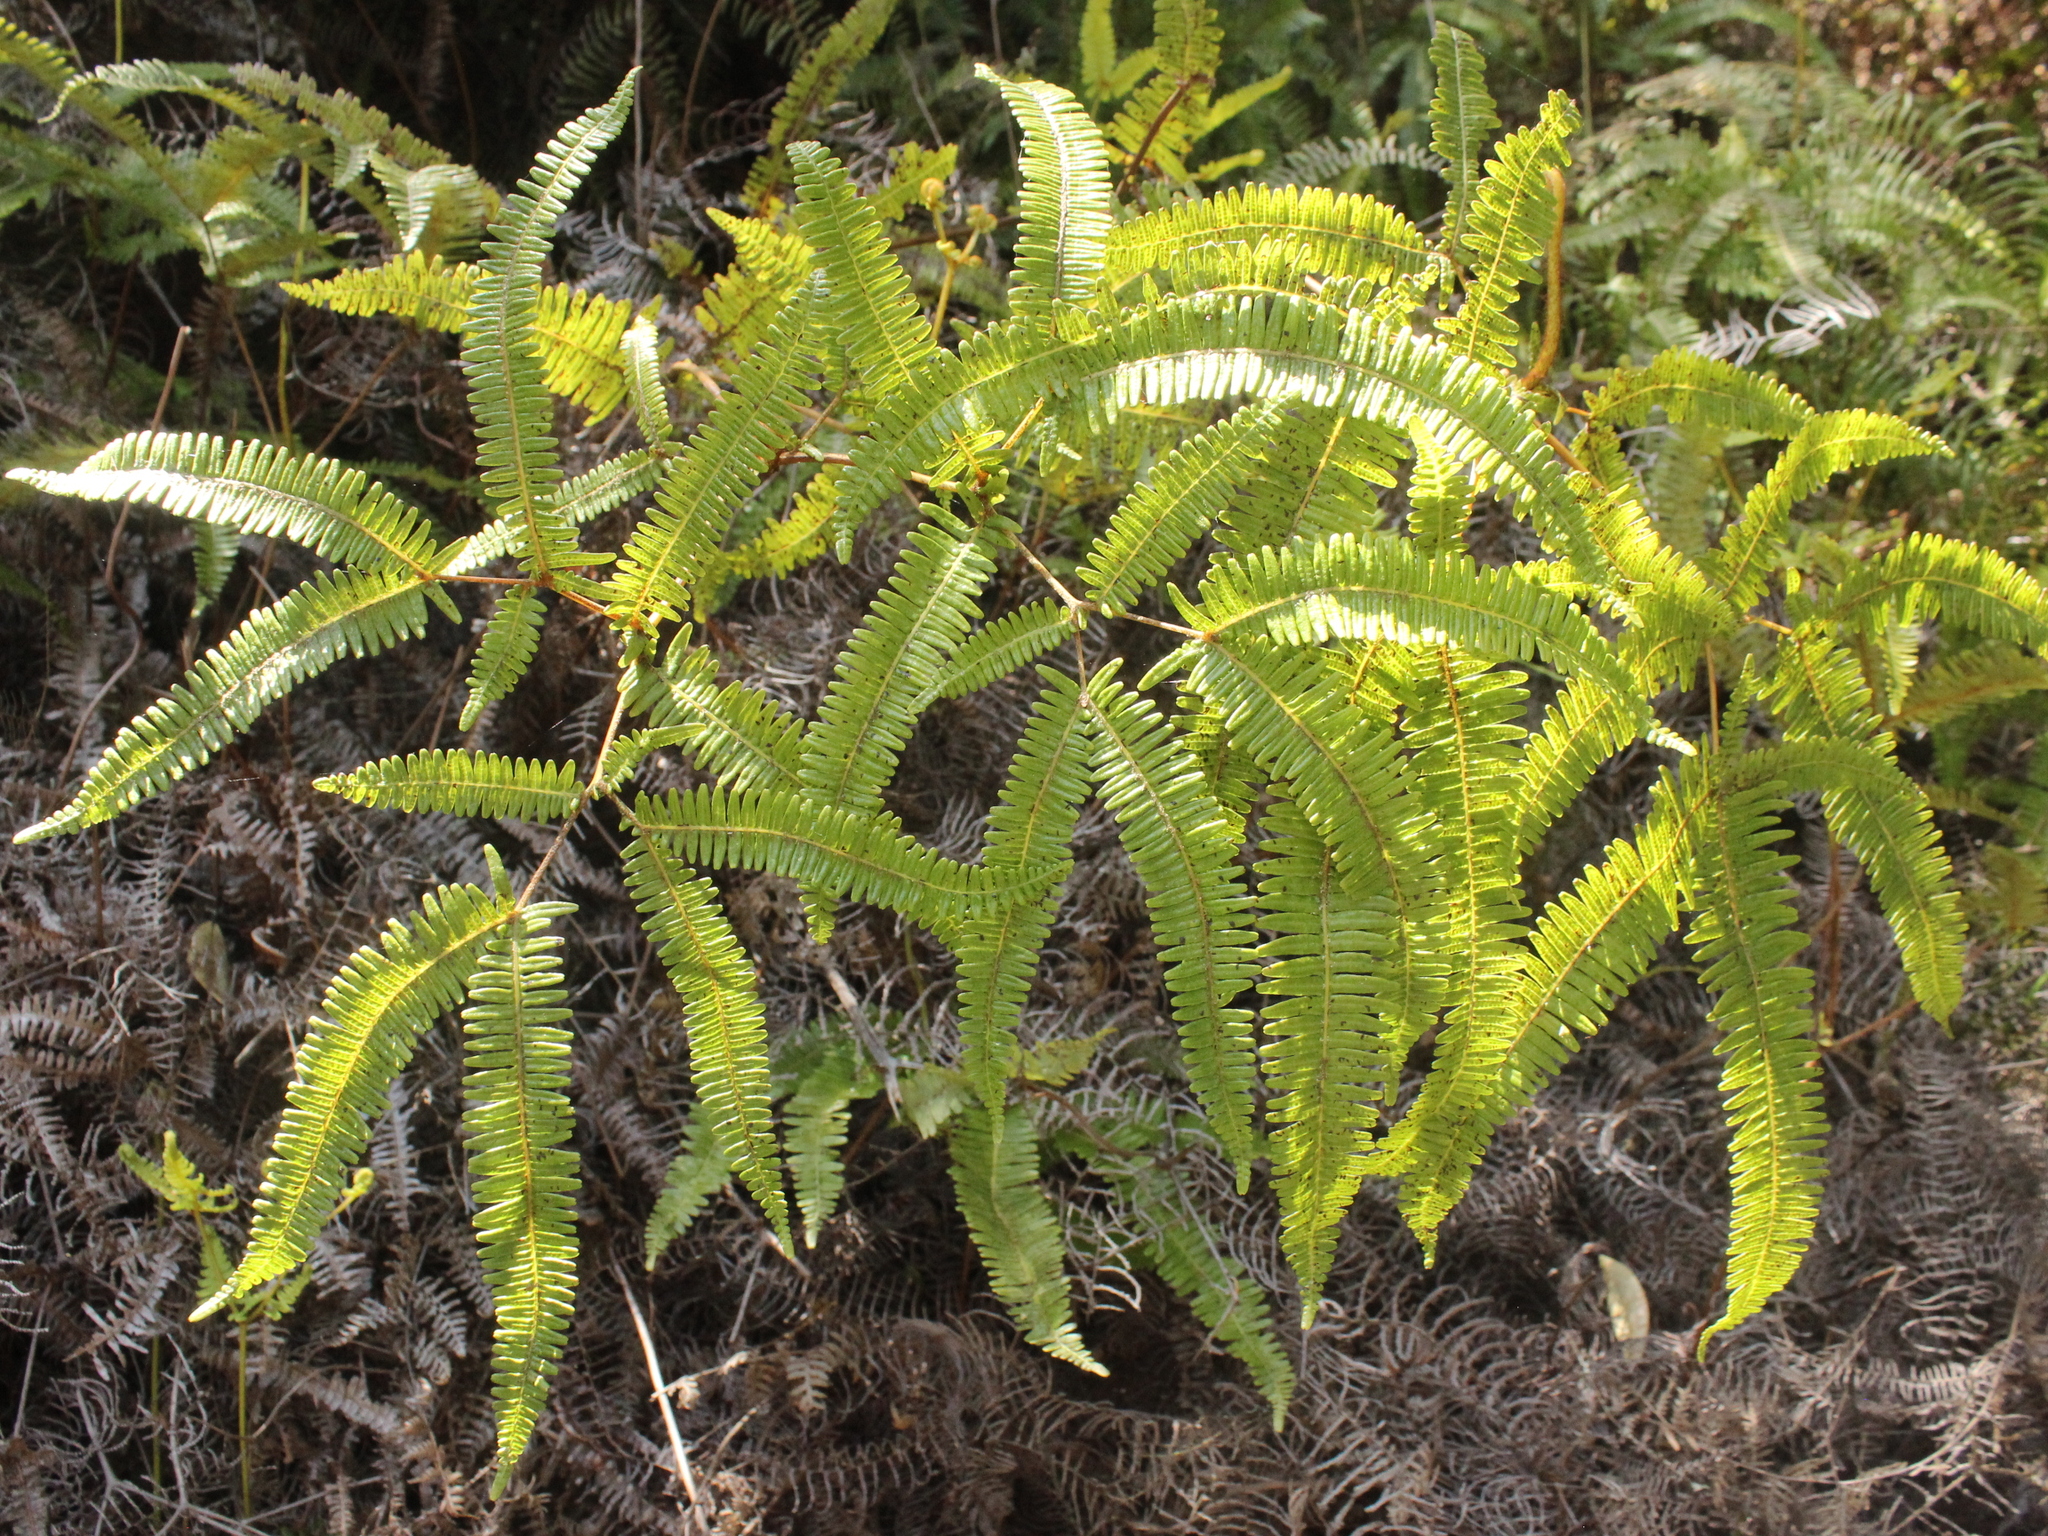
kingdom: Plantae
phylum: Tracheophyta
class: Polypodiopsida
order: Gleicheniales
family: Gleicheniaceae
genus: Dicranopteris
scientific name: Dicranopteris linearis
